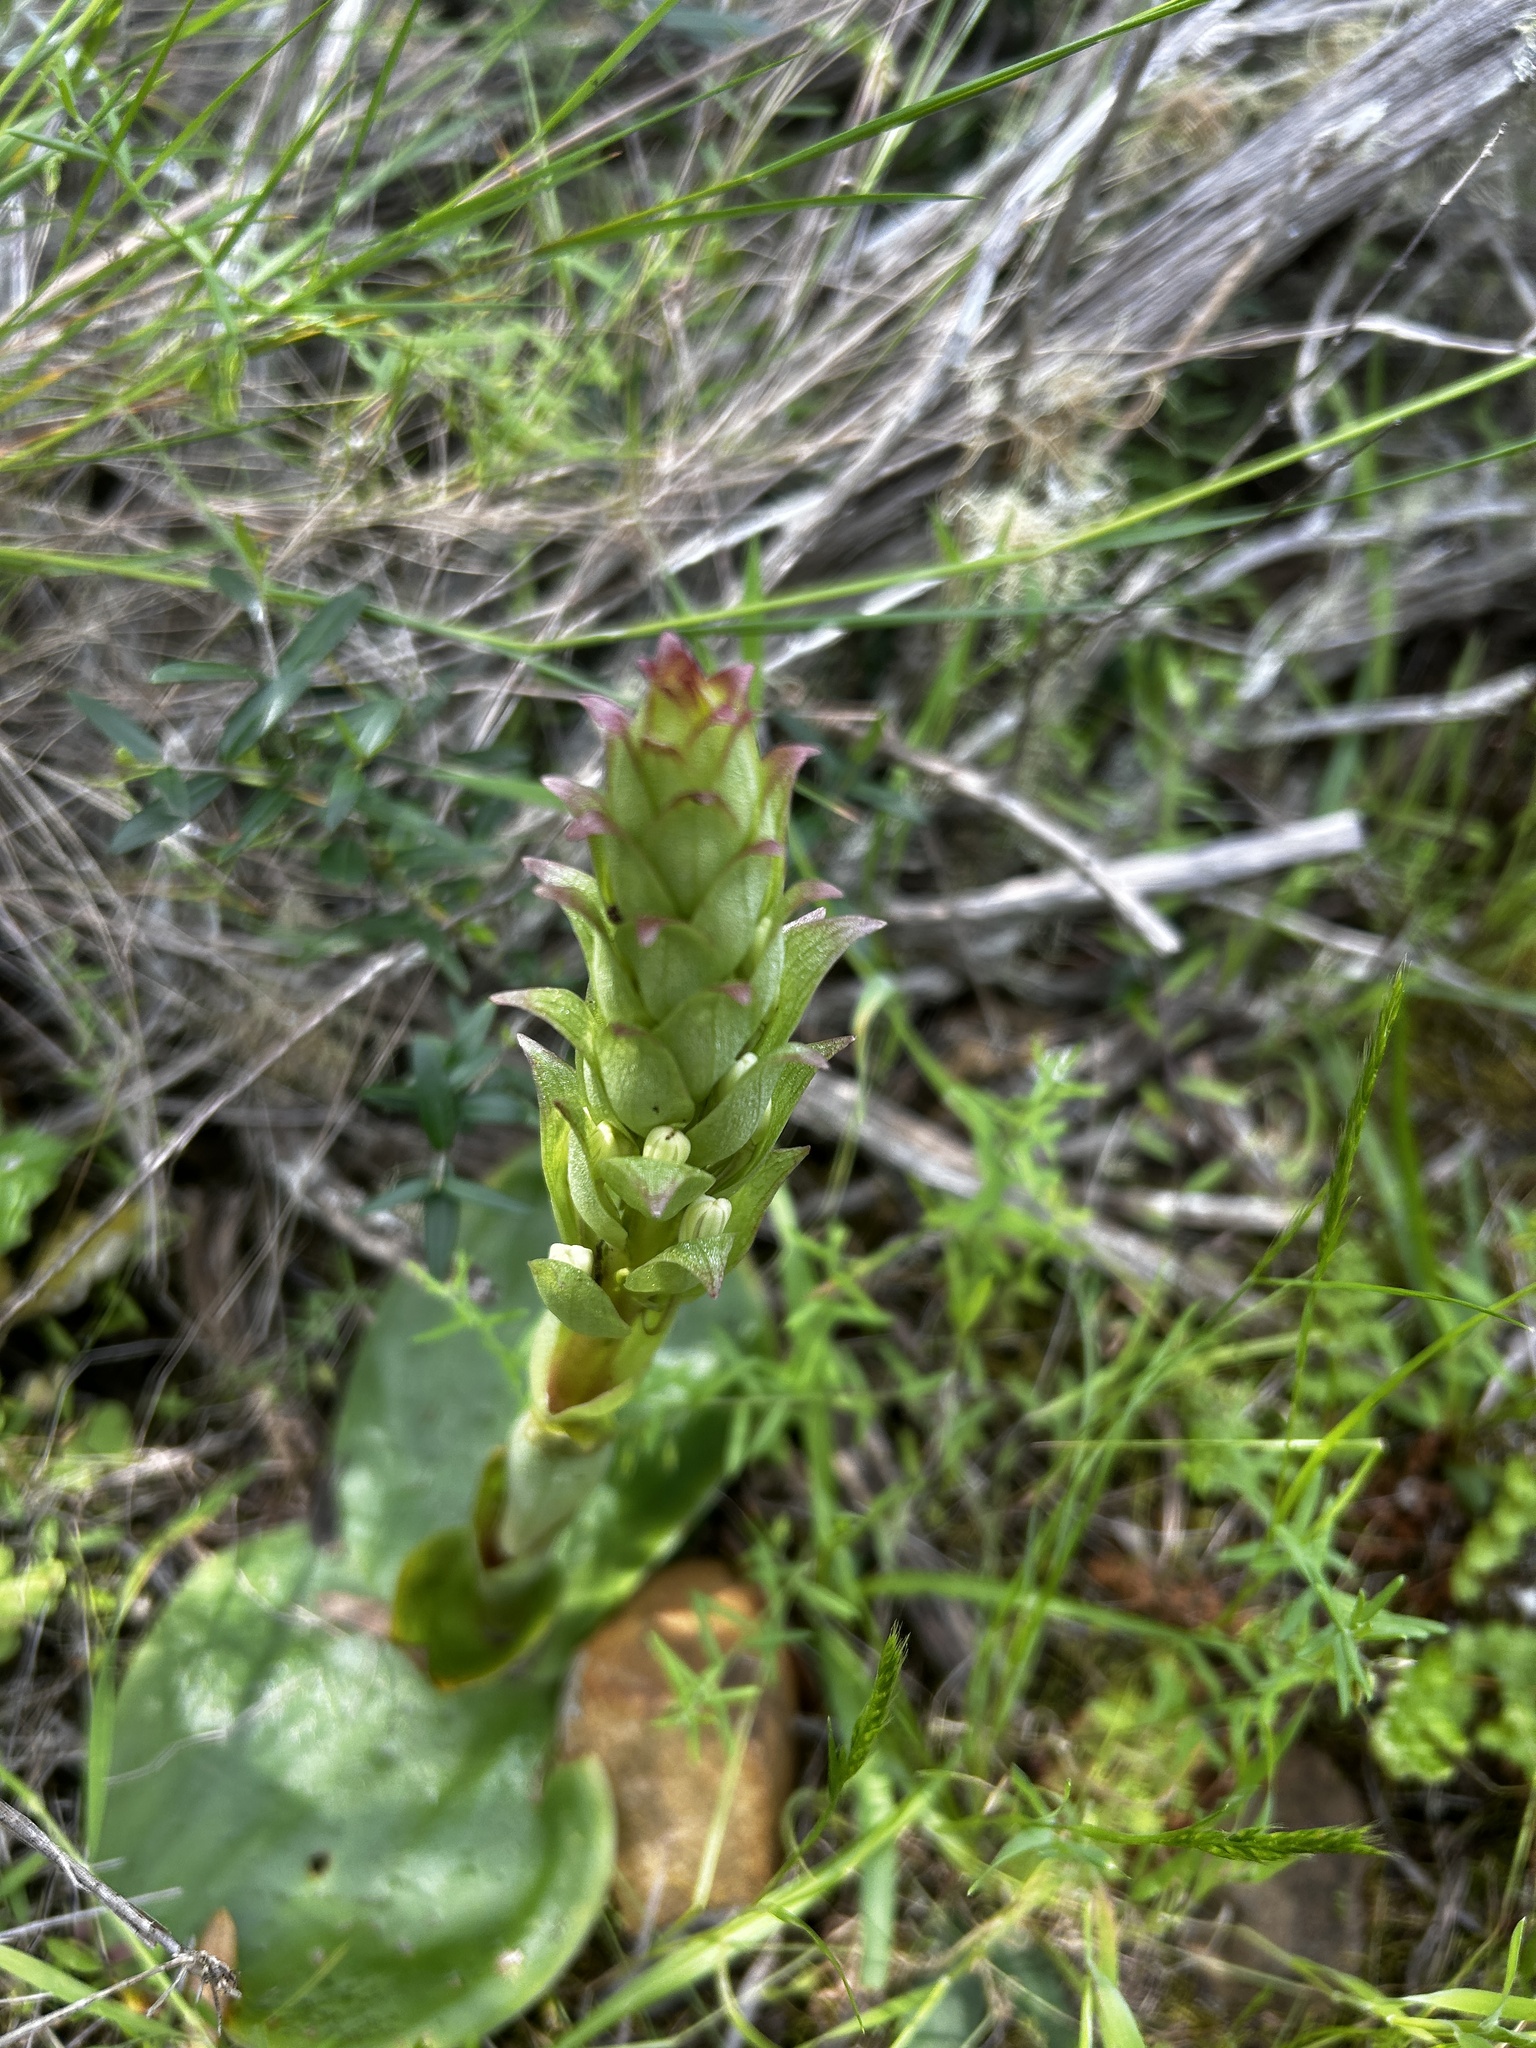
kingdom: Plantae
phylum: Tracheophyta
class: Liliopsida
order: Asparagales
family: Orchidaceae
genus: Satyrium
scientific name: Satyrium longicolle
